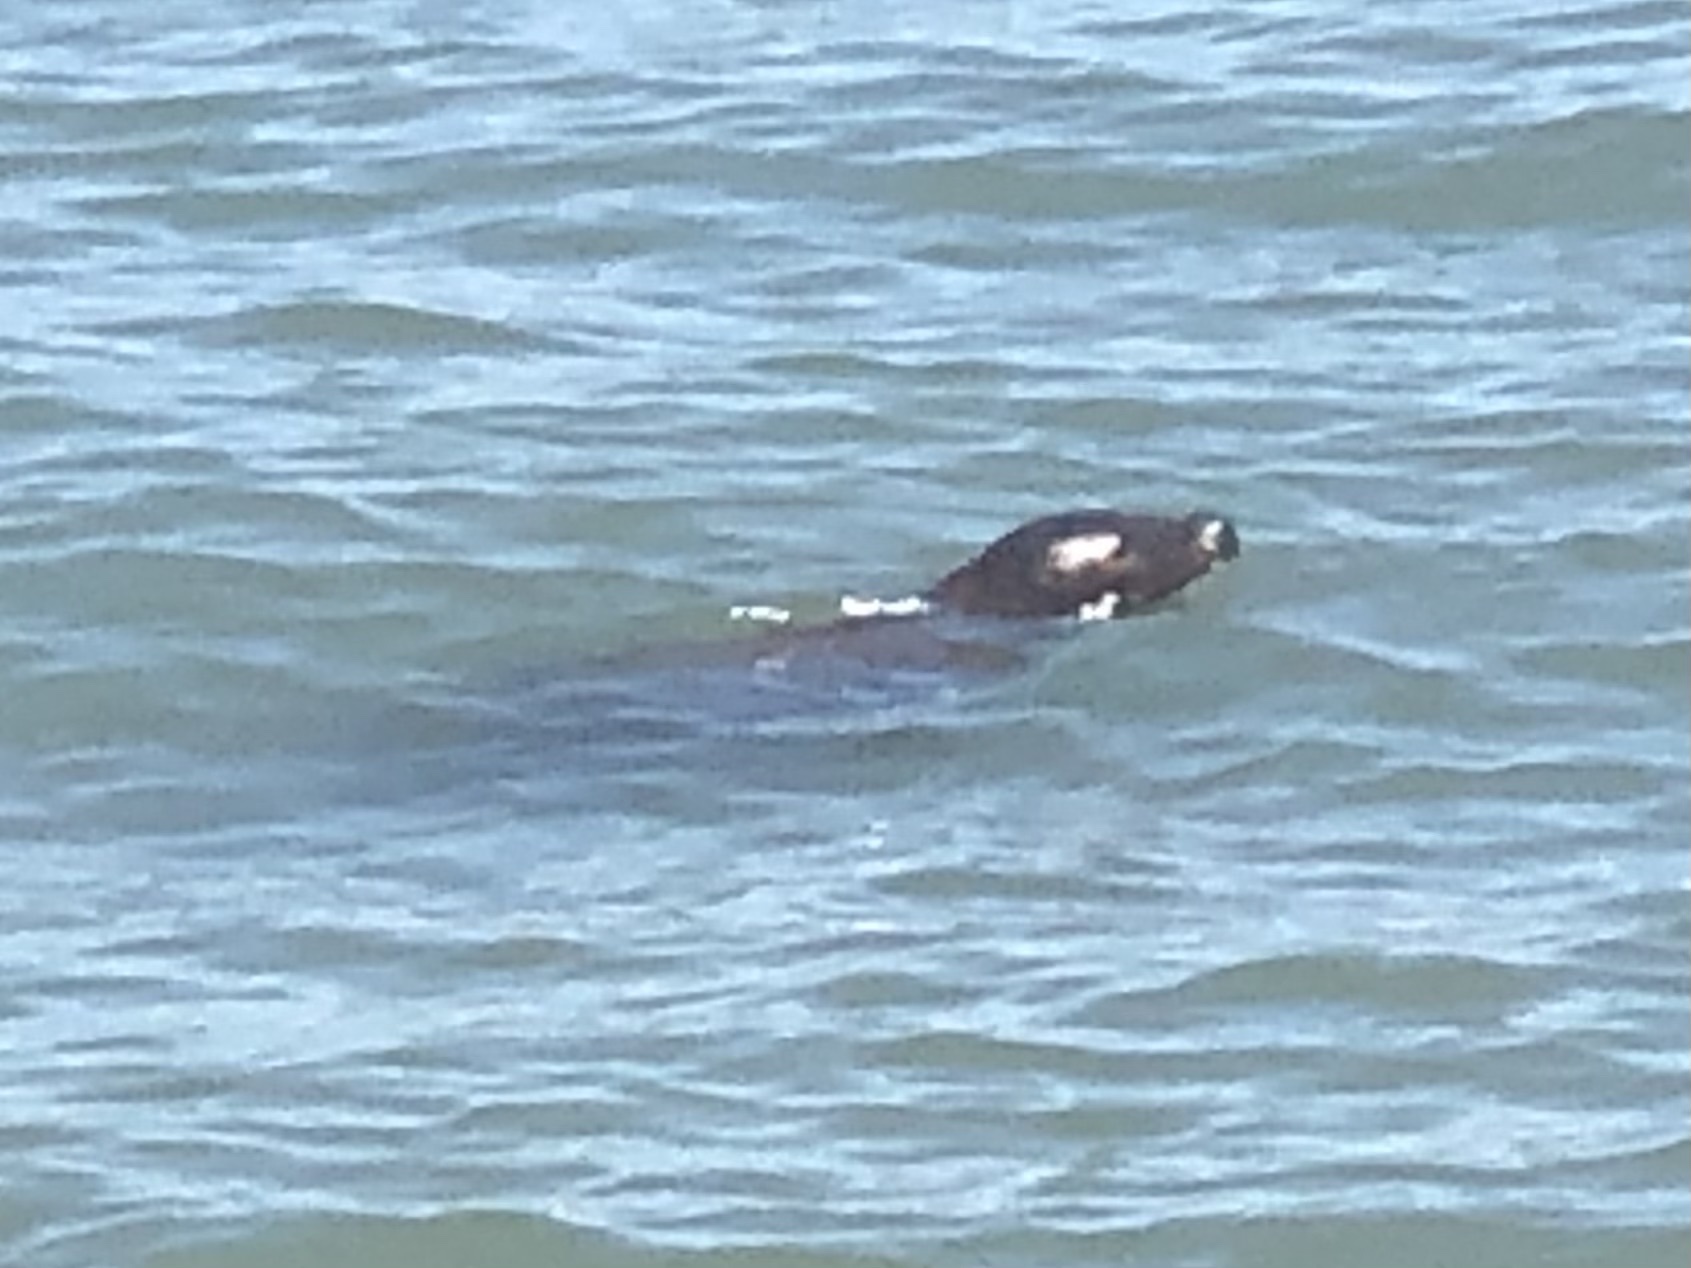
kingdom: Animalia
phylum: Chordata
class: Mammalia
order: Carnivora
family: Phocidae
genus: Phoca
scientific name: Phoca vitulina
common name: Harbor seal
